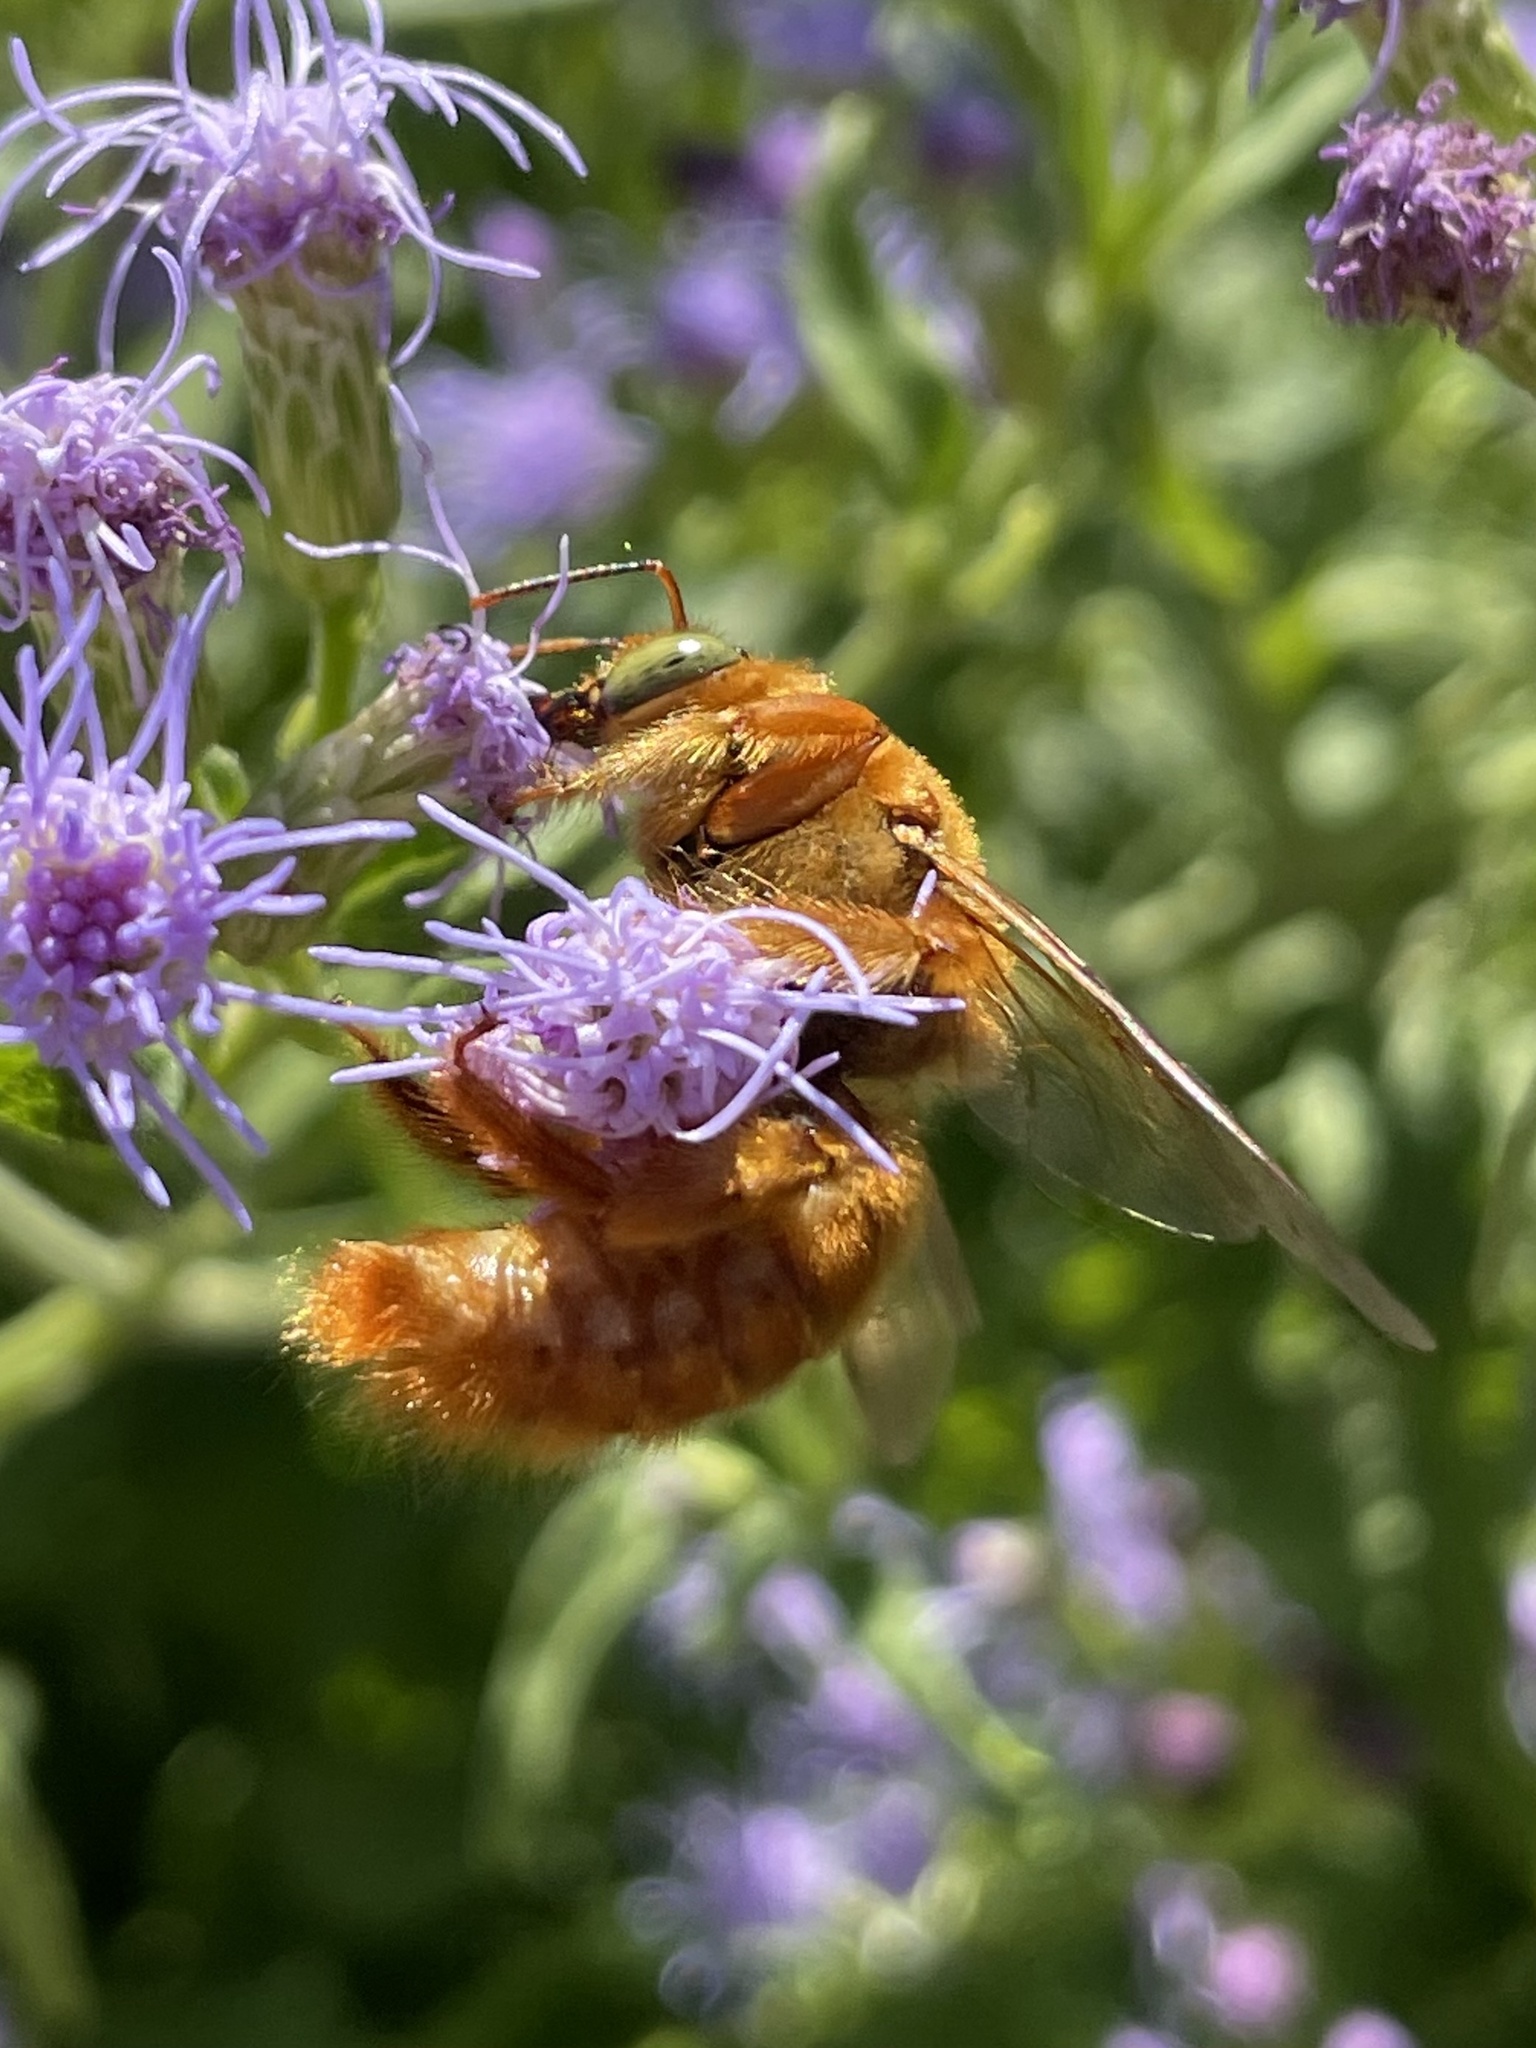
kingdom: Animalia
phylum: Arthropoda
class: Insecta
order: Hymenoptera
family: Apidae
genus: Xylocopa
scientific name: Xylocopa griswoldi
